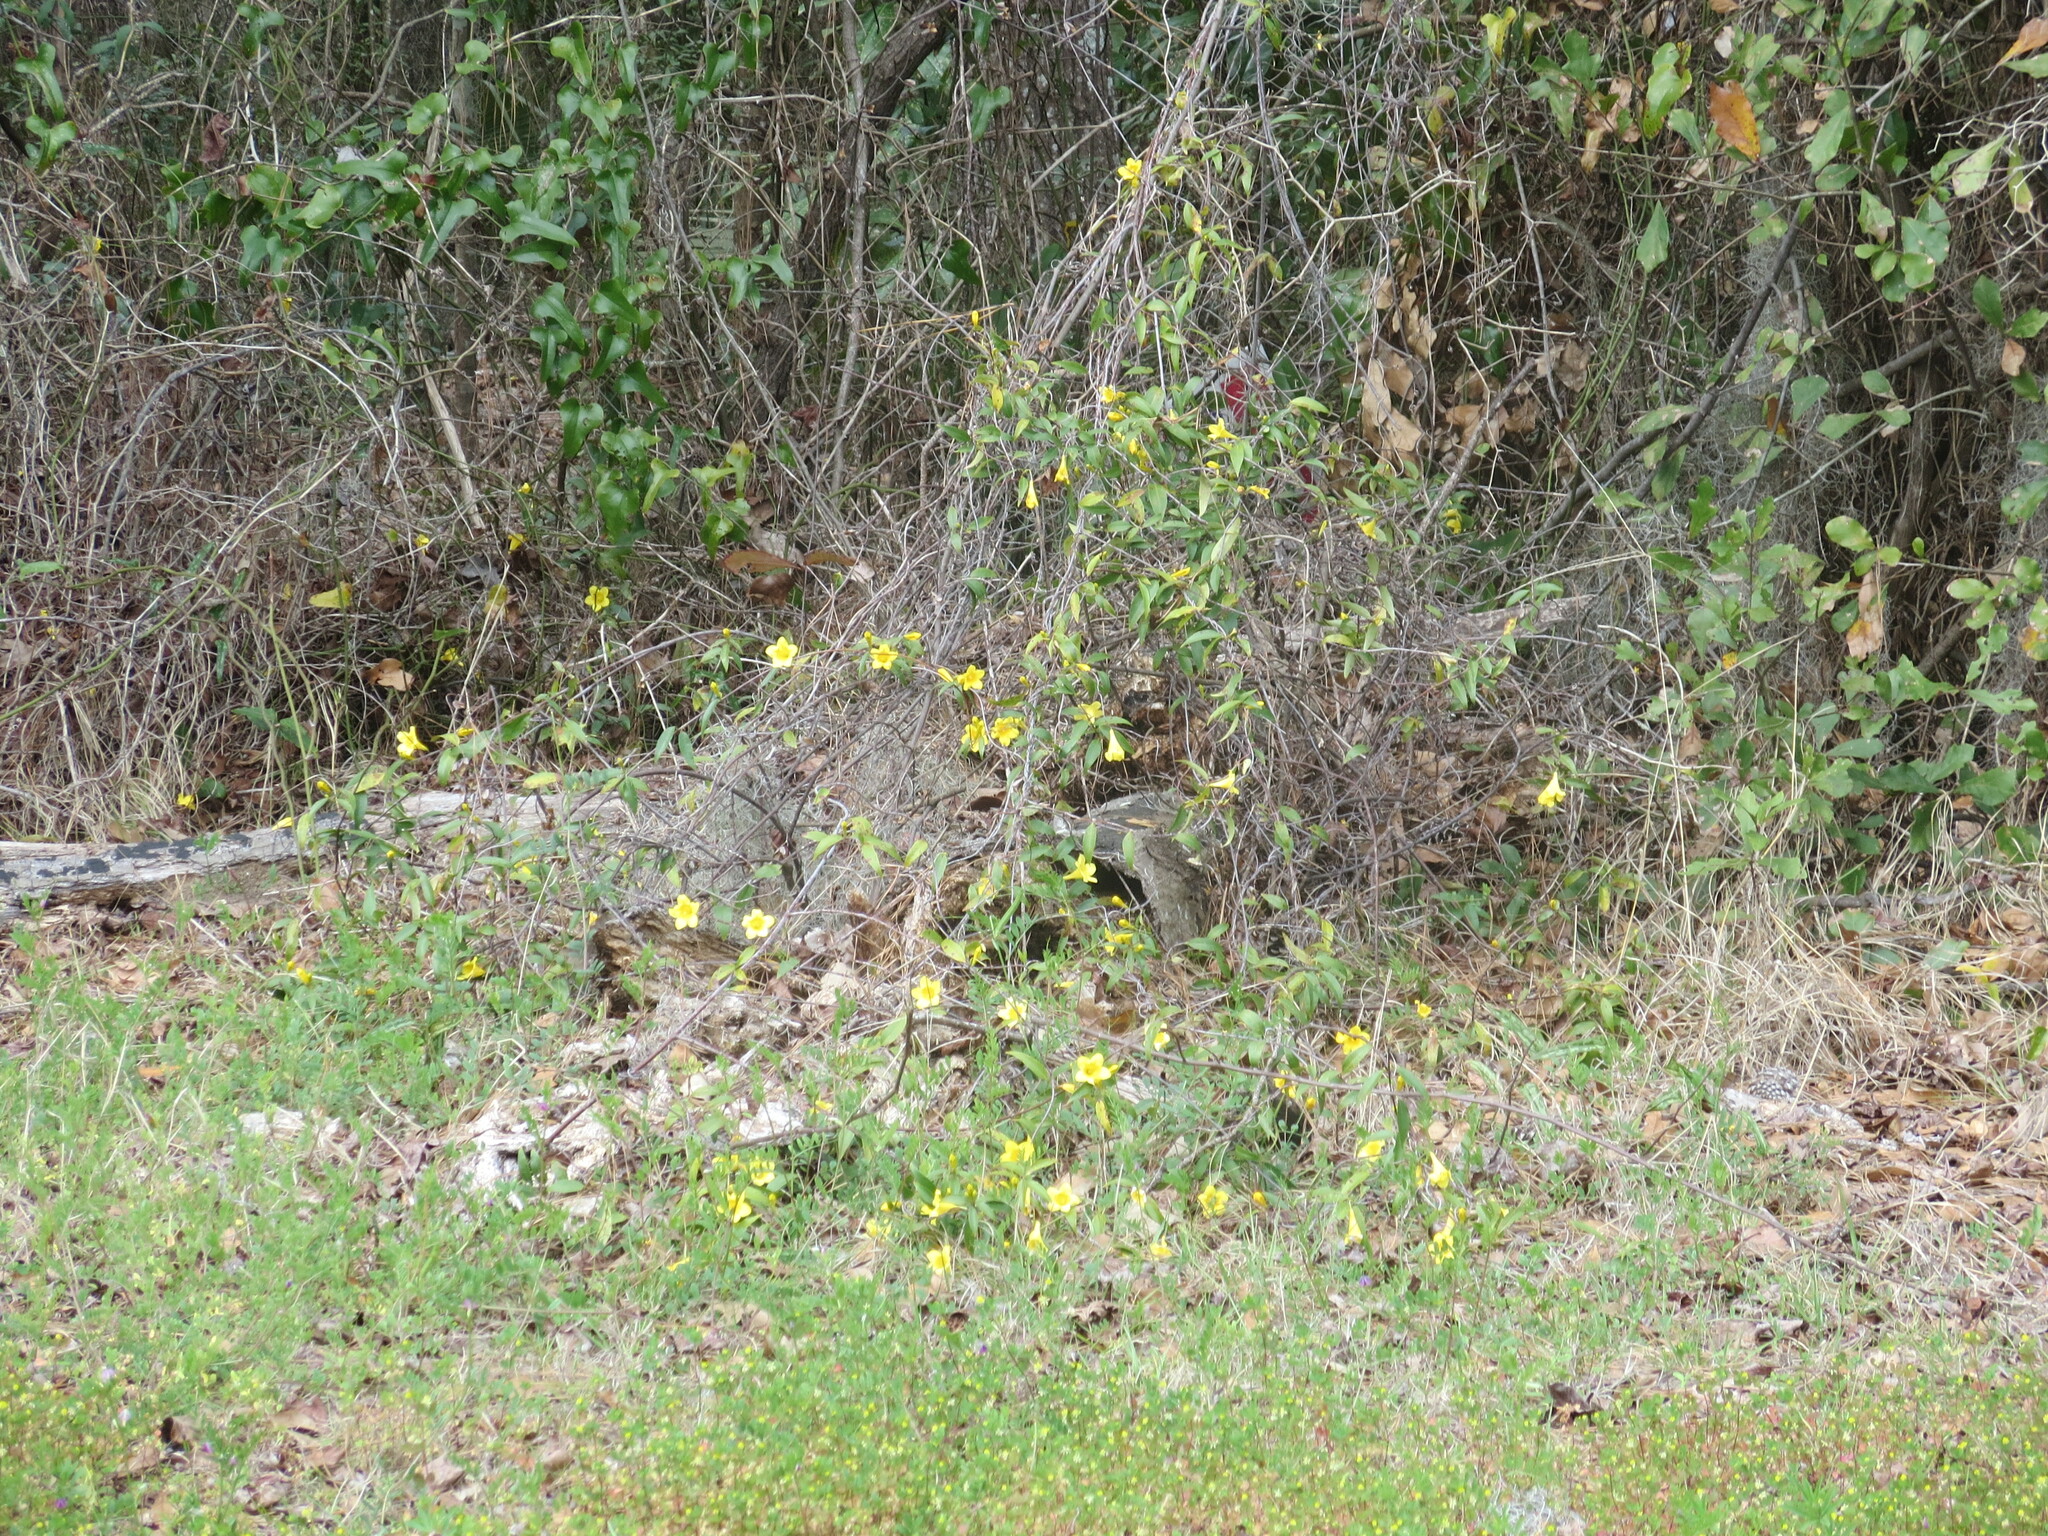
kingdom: Plantae
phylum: Tracheophyta
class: Magnoliopsida
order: Gentianales
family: Gelsemiaceae
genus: Gelsemium
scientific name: Gelsemium sempervirens
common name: Carolina-jasmine
